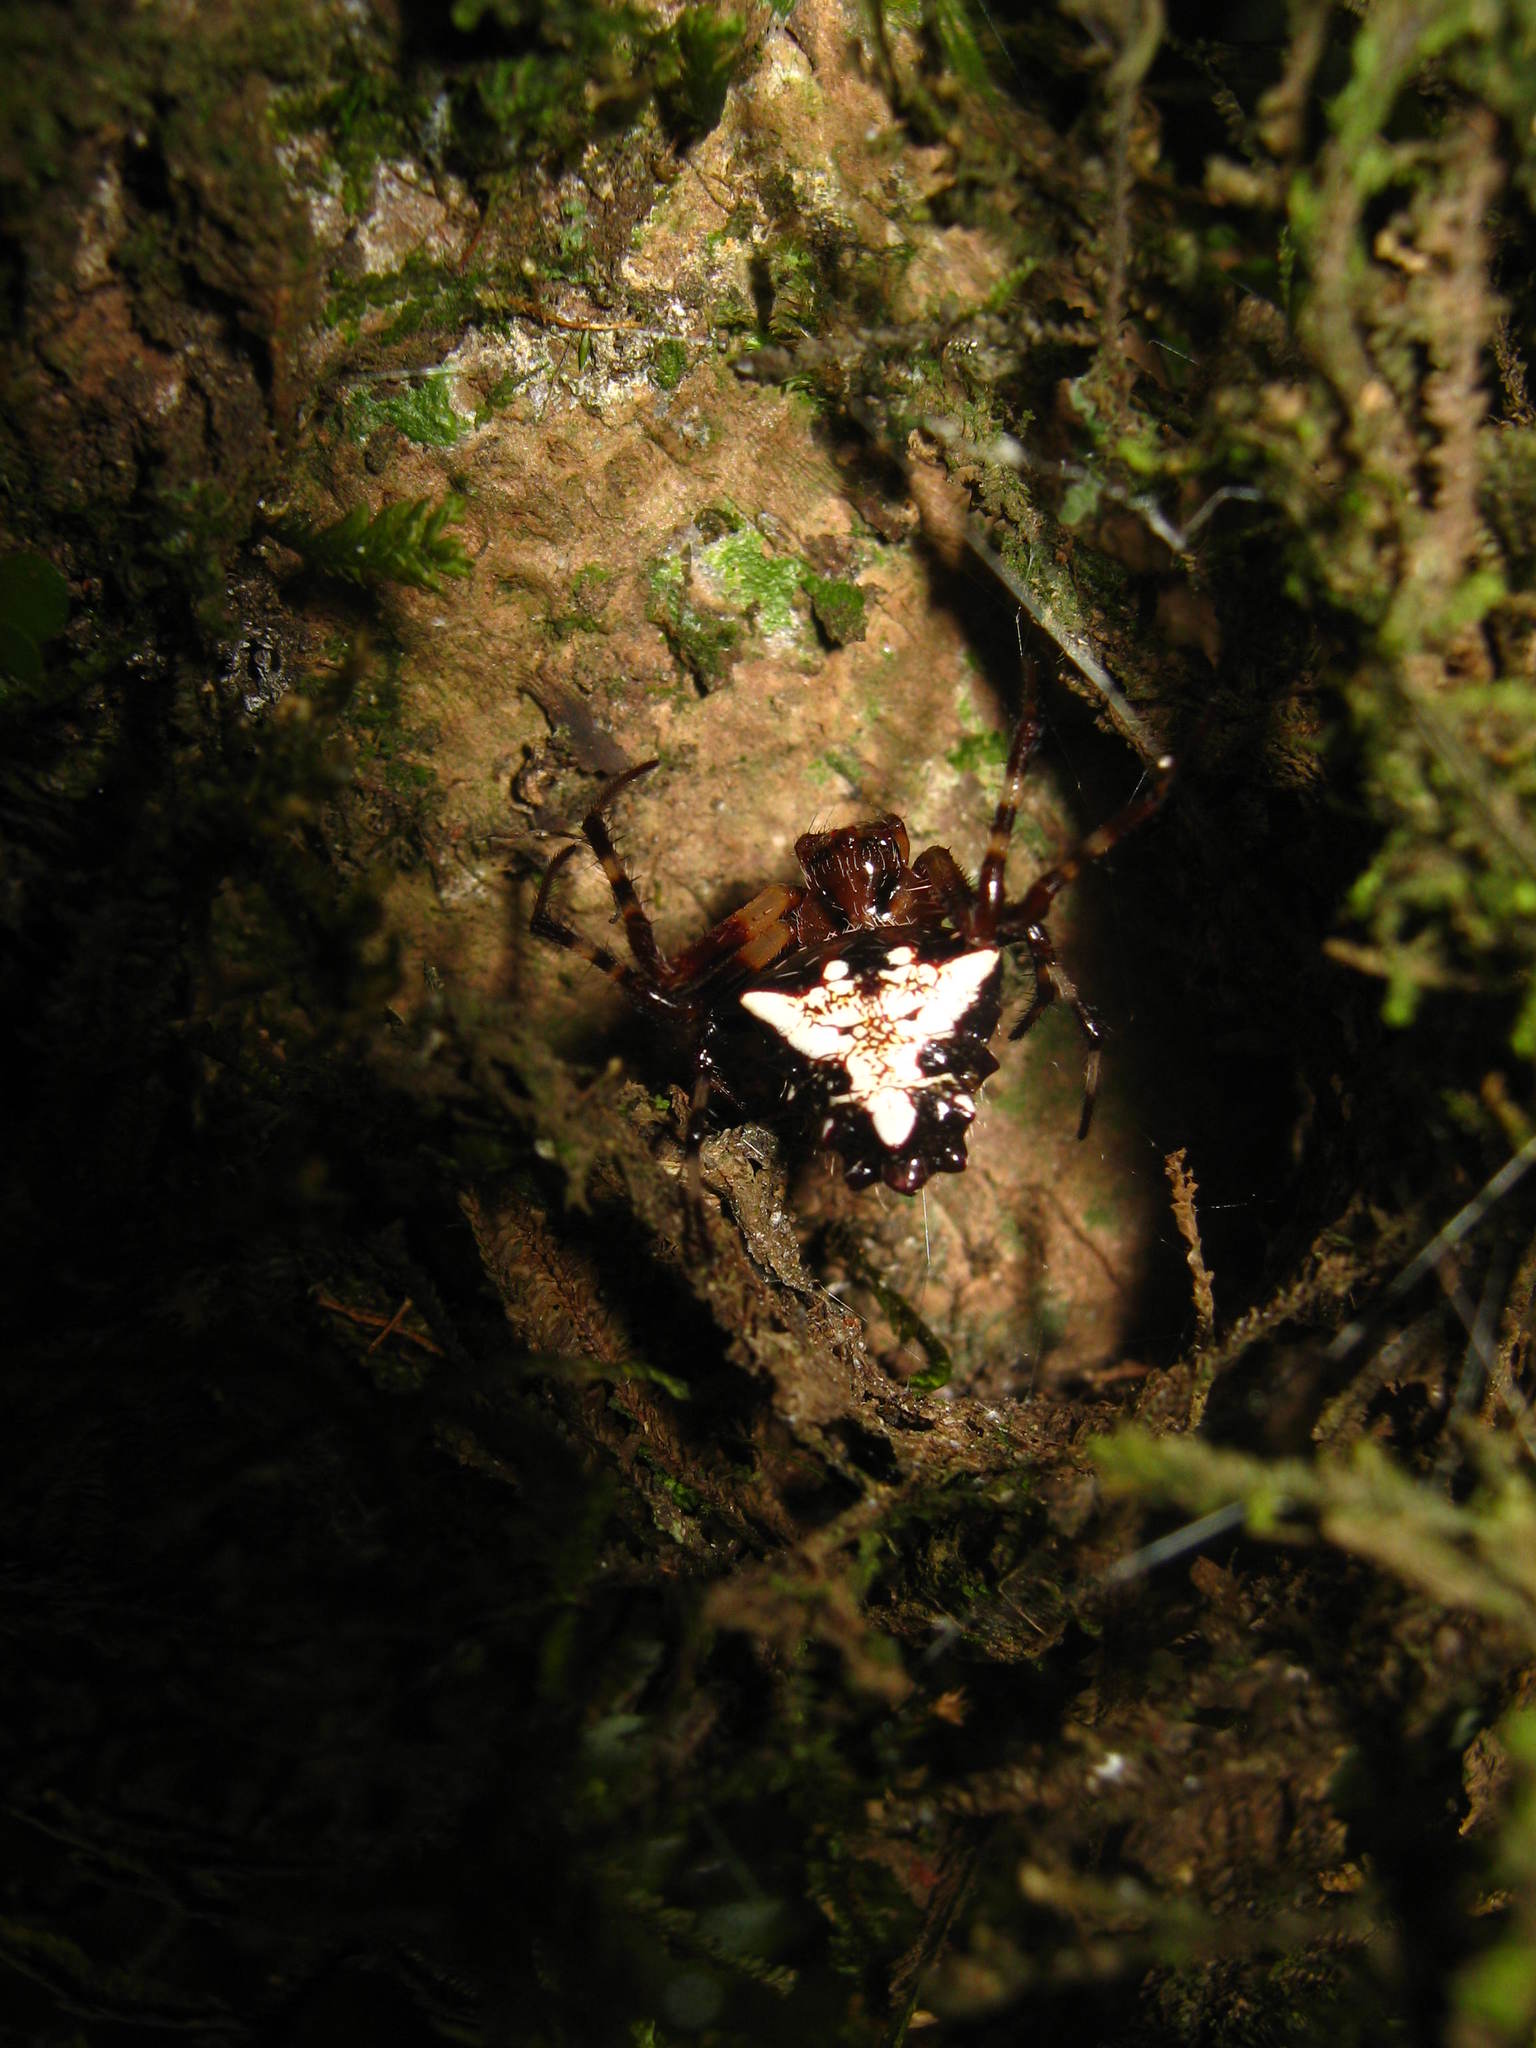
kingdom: Animalia
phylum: Arthropoda
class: Arachnida
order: Araneae
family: Araneidae
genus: Verrucosa
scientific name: Verrucosa arenata
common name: Orb weavers
